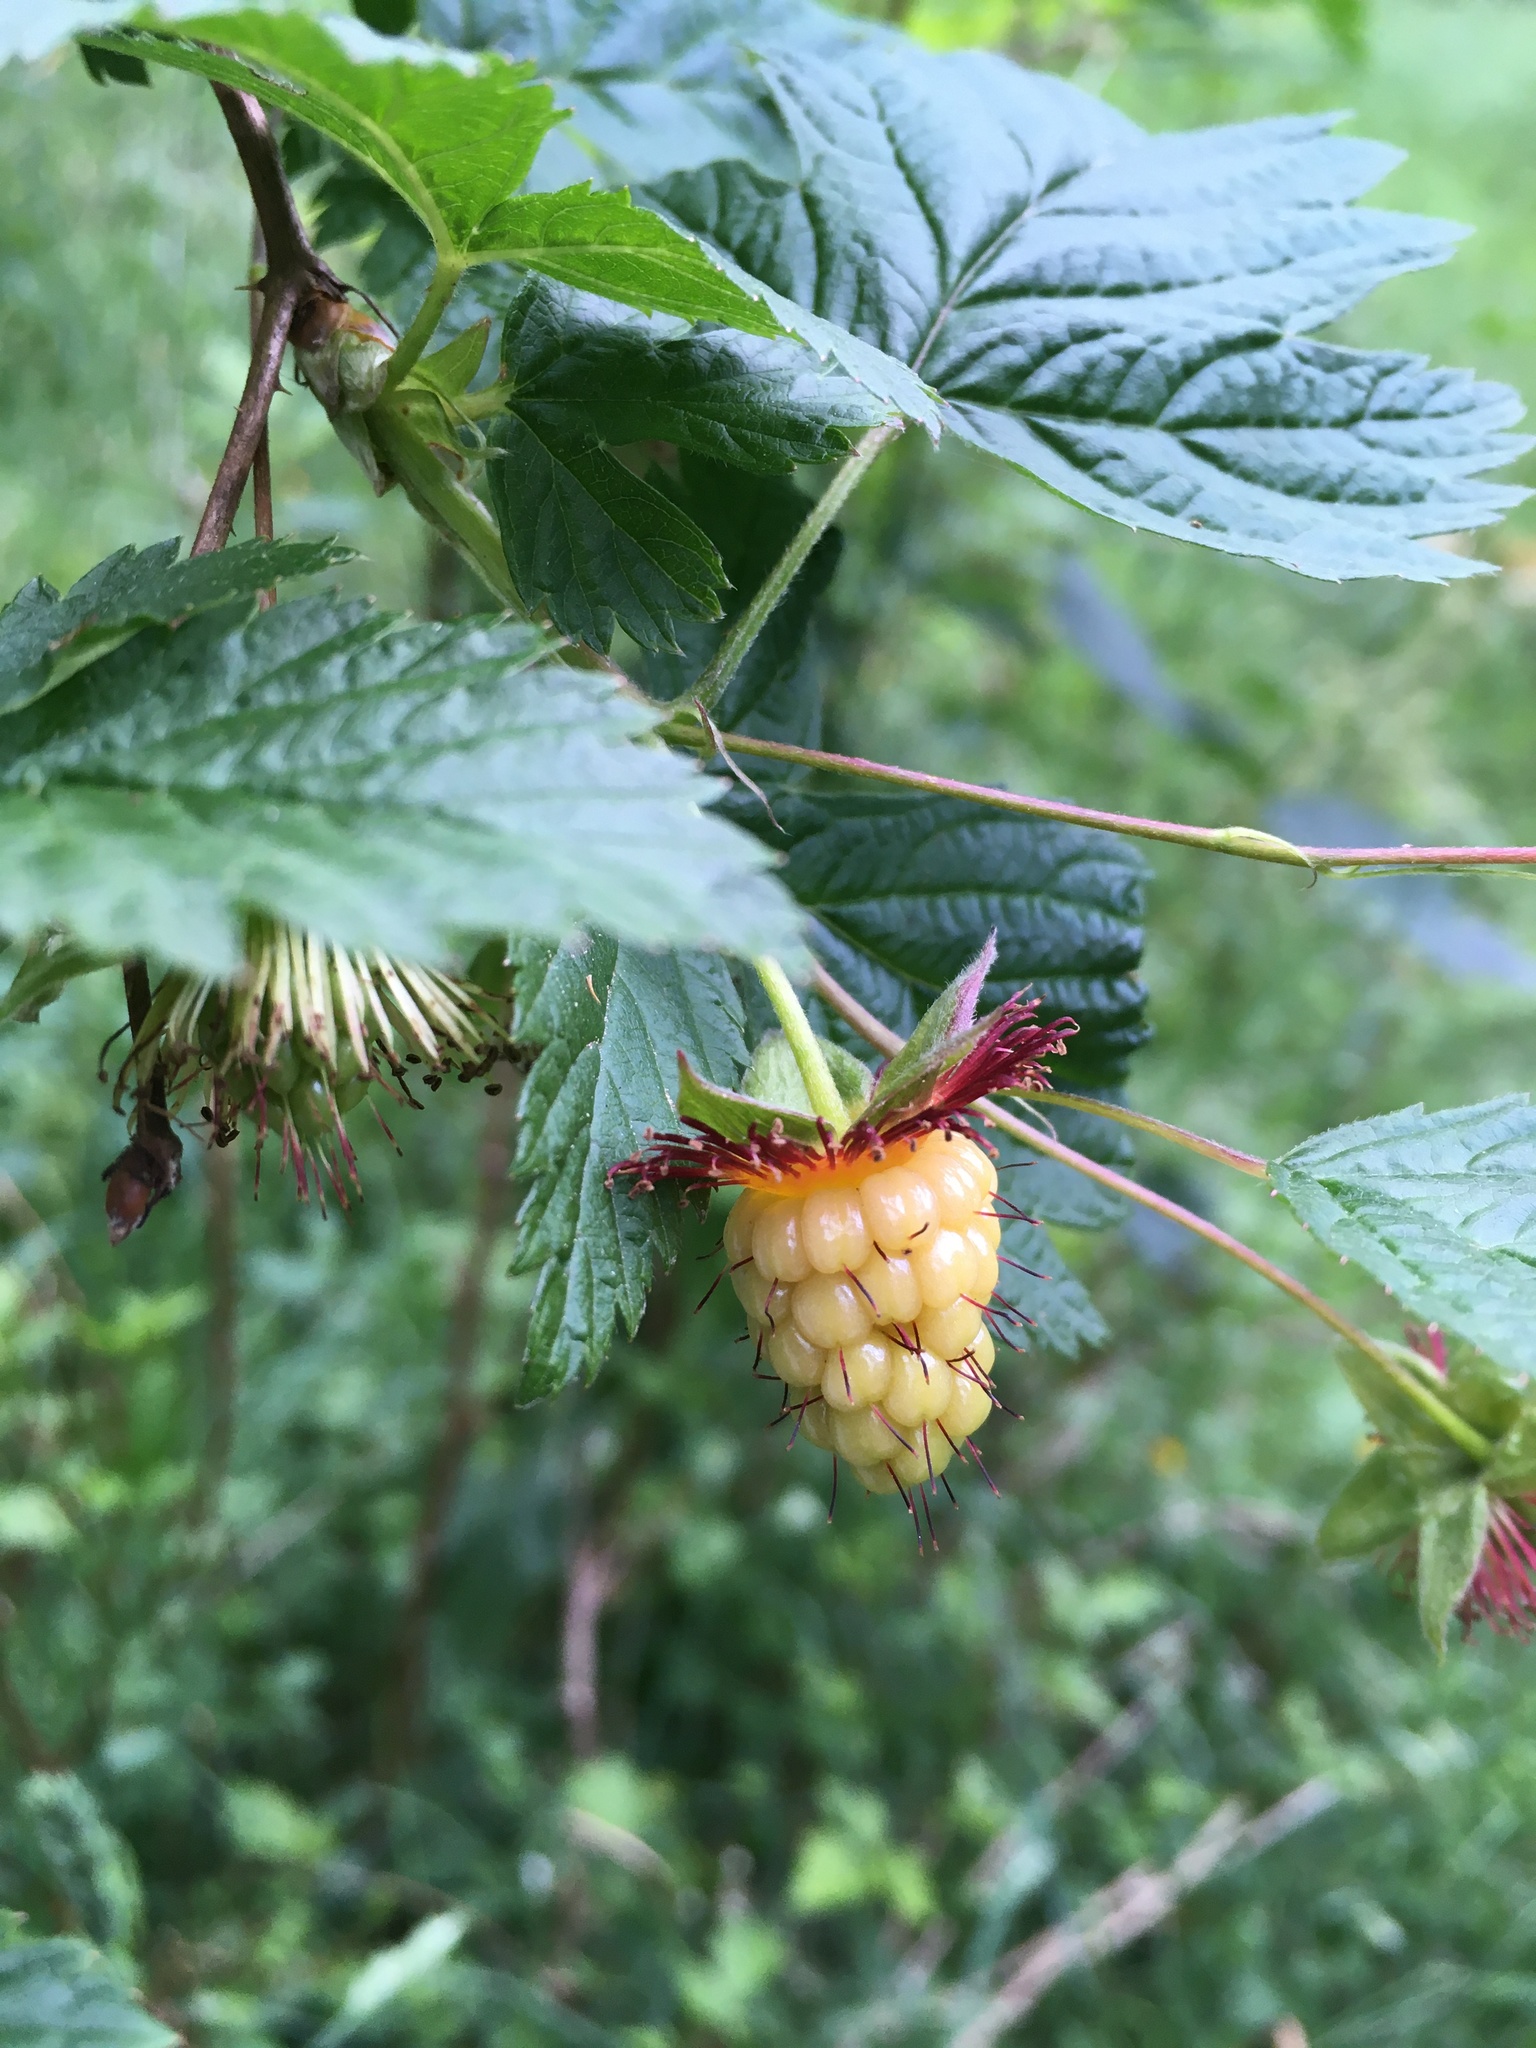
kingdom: Plantae
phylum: Tracheophyta
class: Magnoliopsida
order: Rosales
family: Rosaceae
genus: Rubus
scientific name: Rubus spectabilis
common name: Salmonberry
